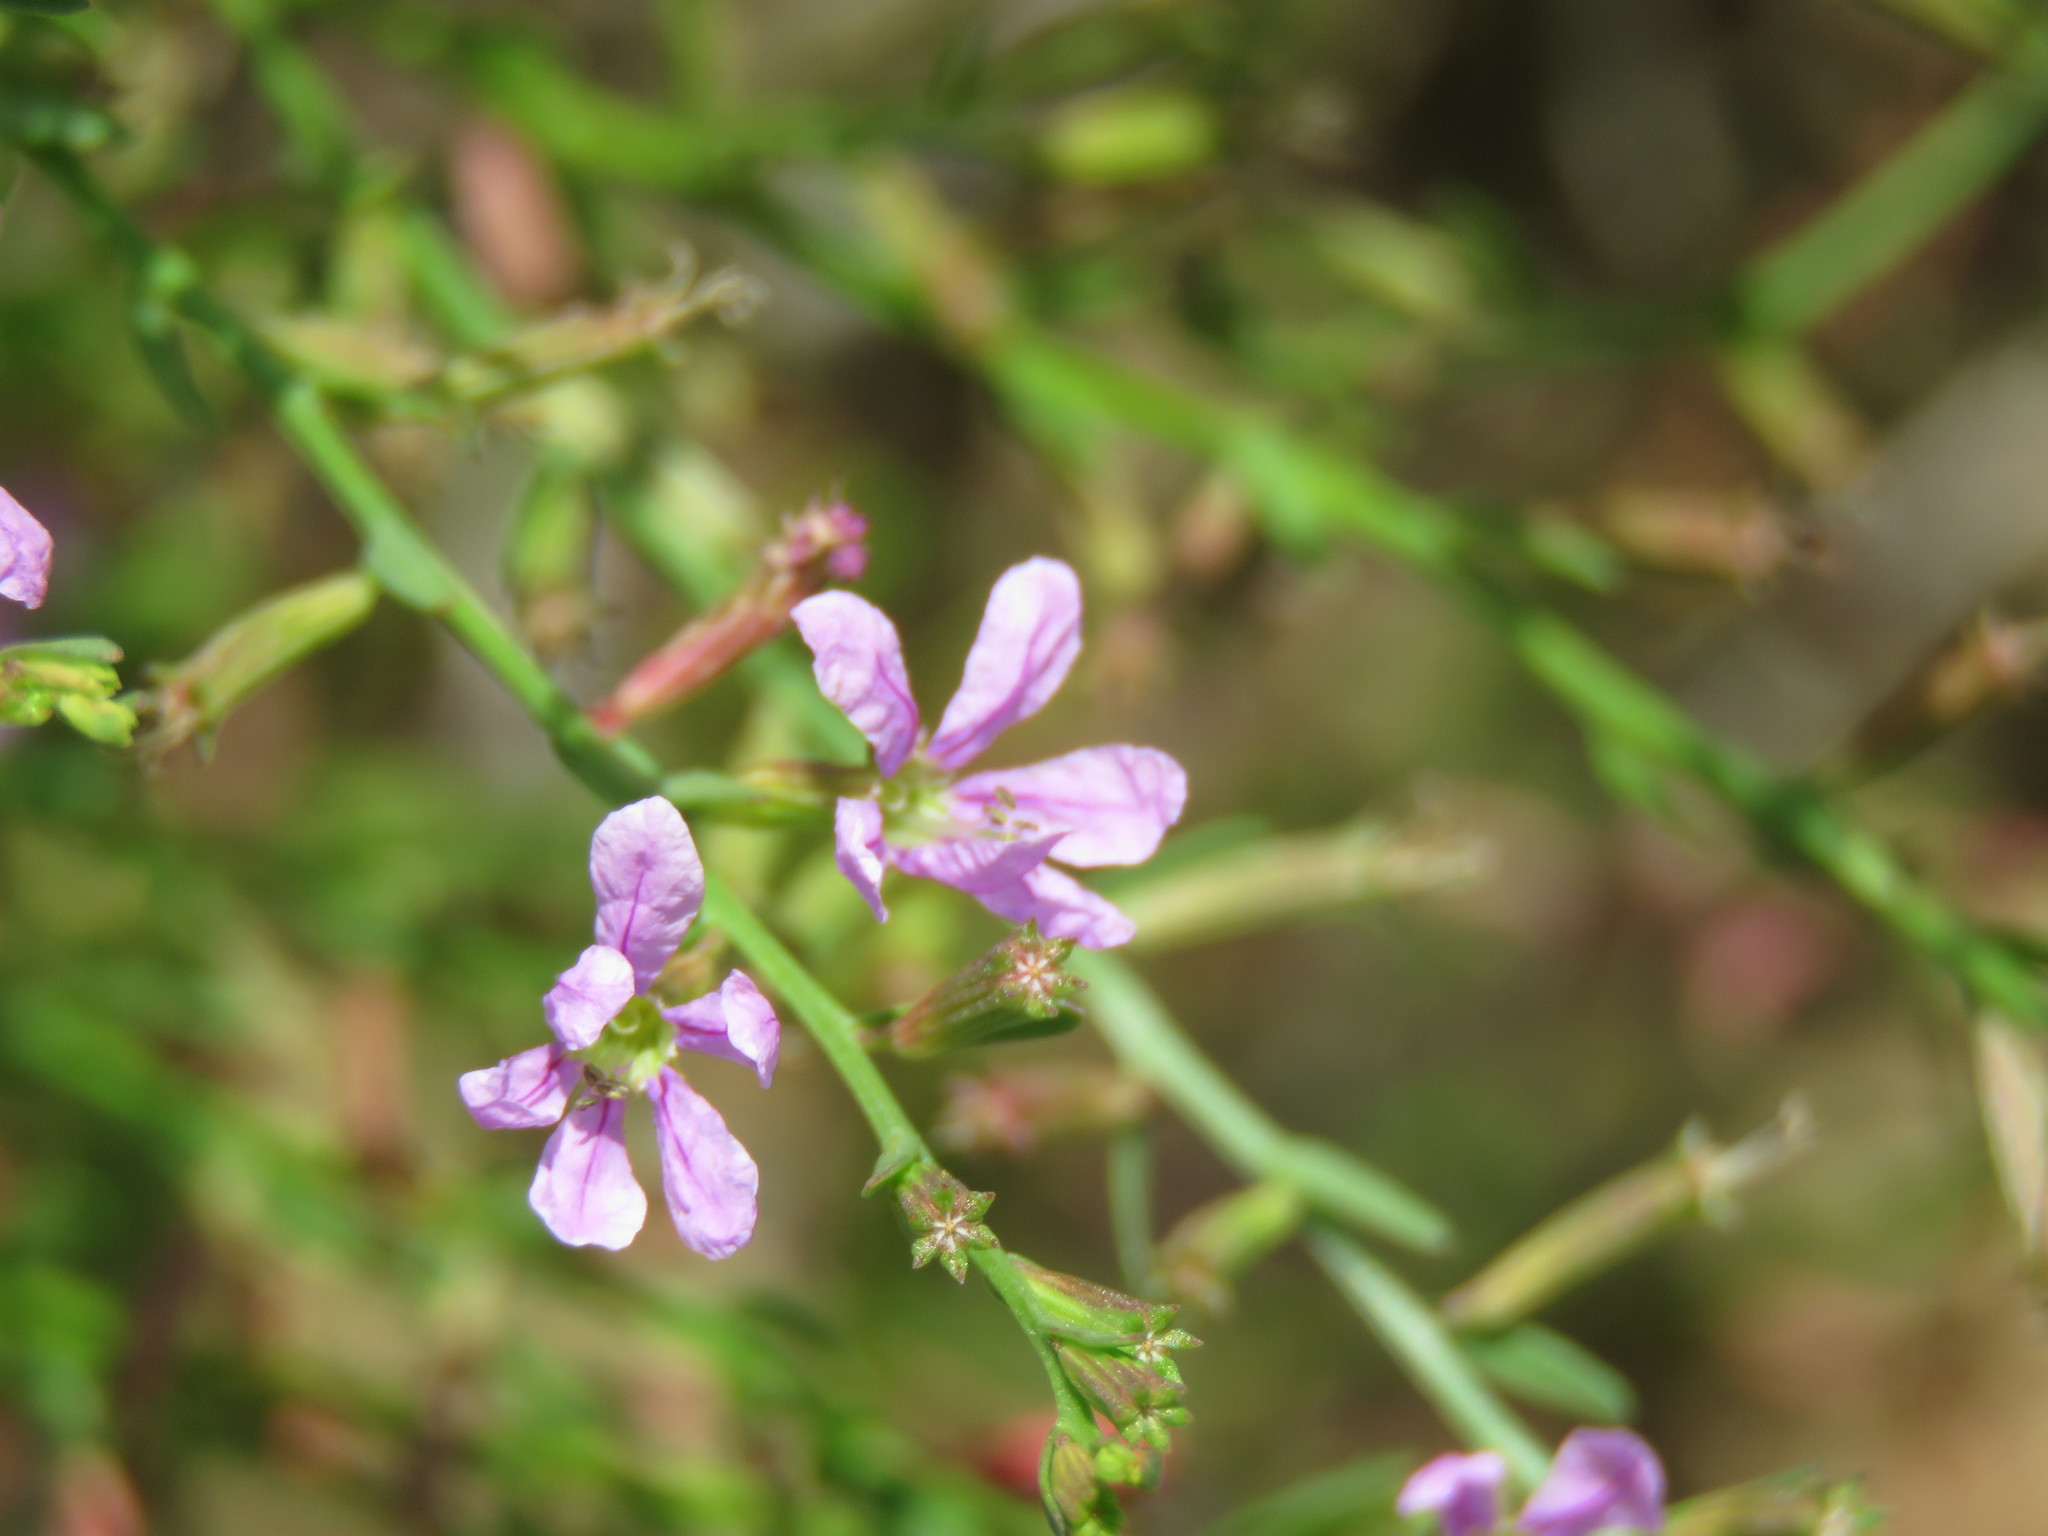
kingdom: Plantae
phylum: Tracheophyta
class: Magnoliopsida
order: Myrtales
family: Lythraceae
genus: Lythrum
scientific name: Lythrum californicum
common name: California loosestrife
